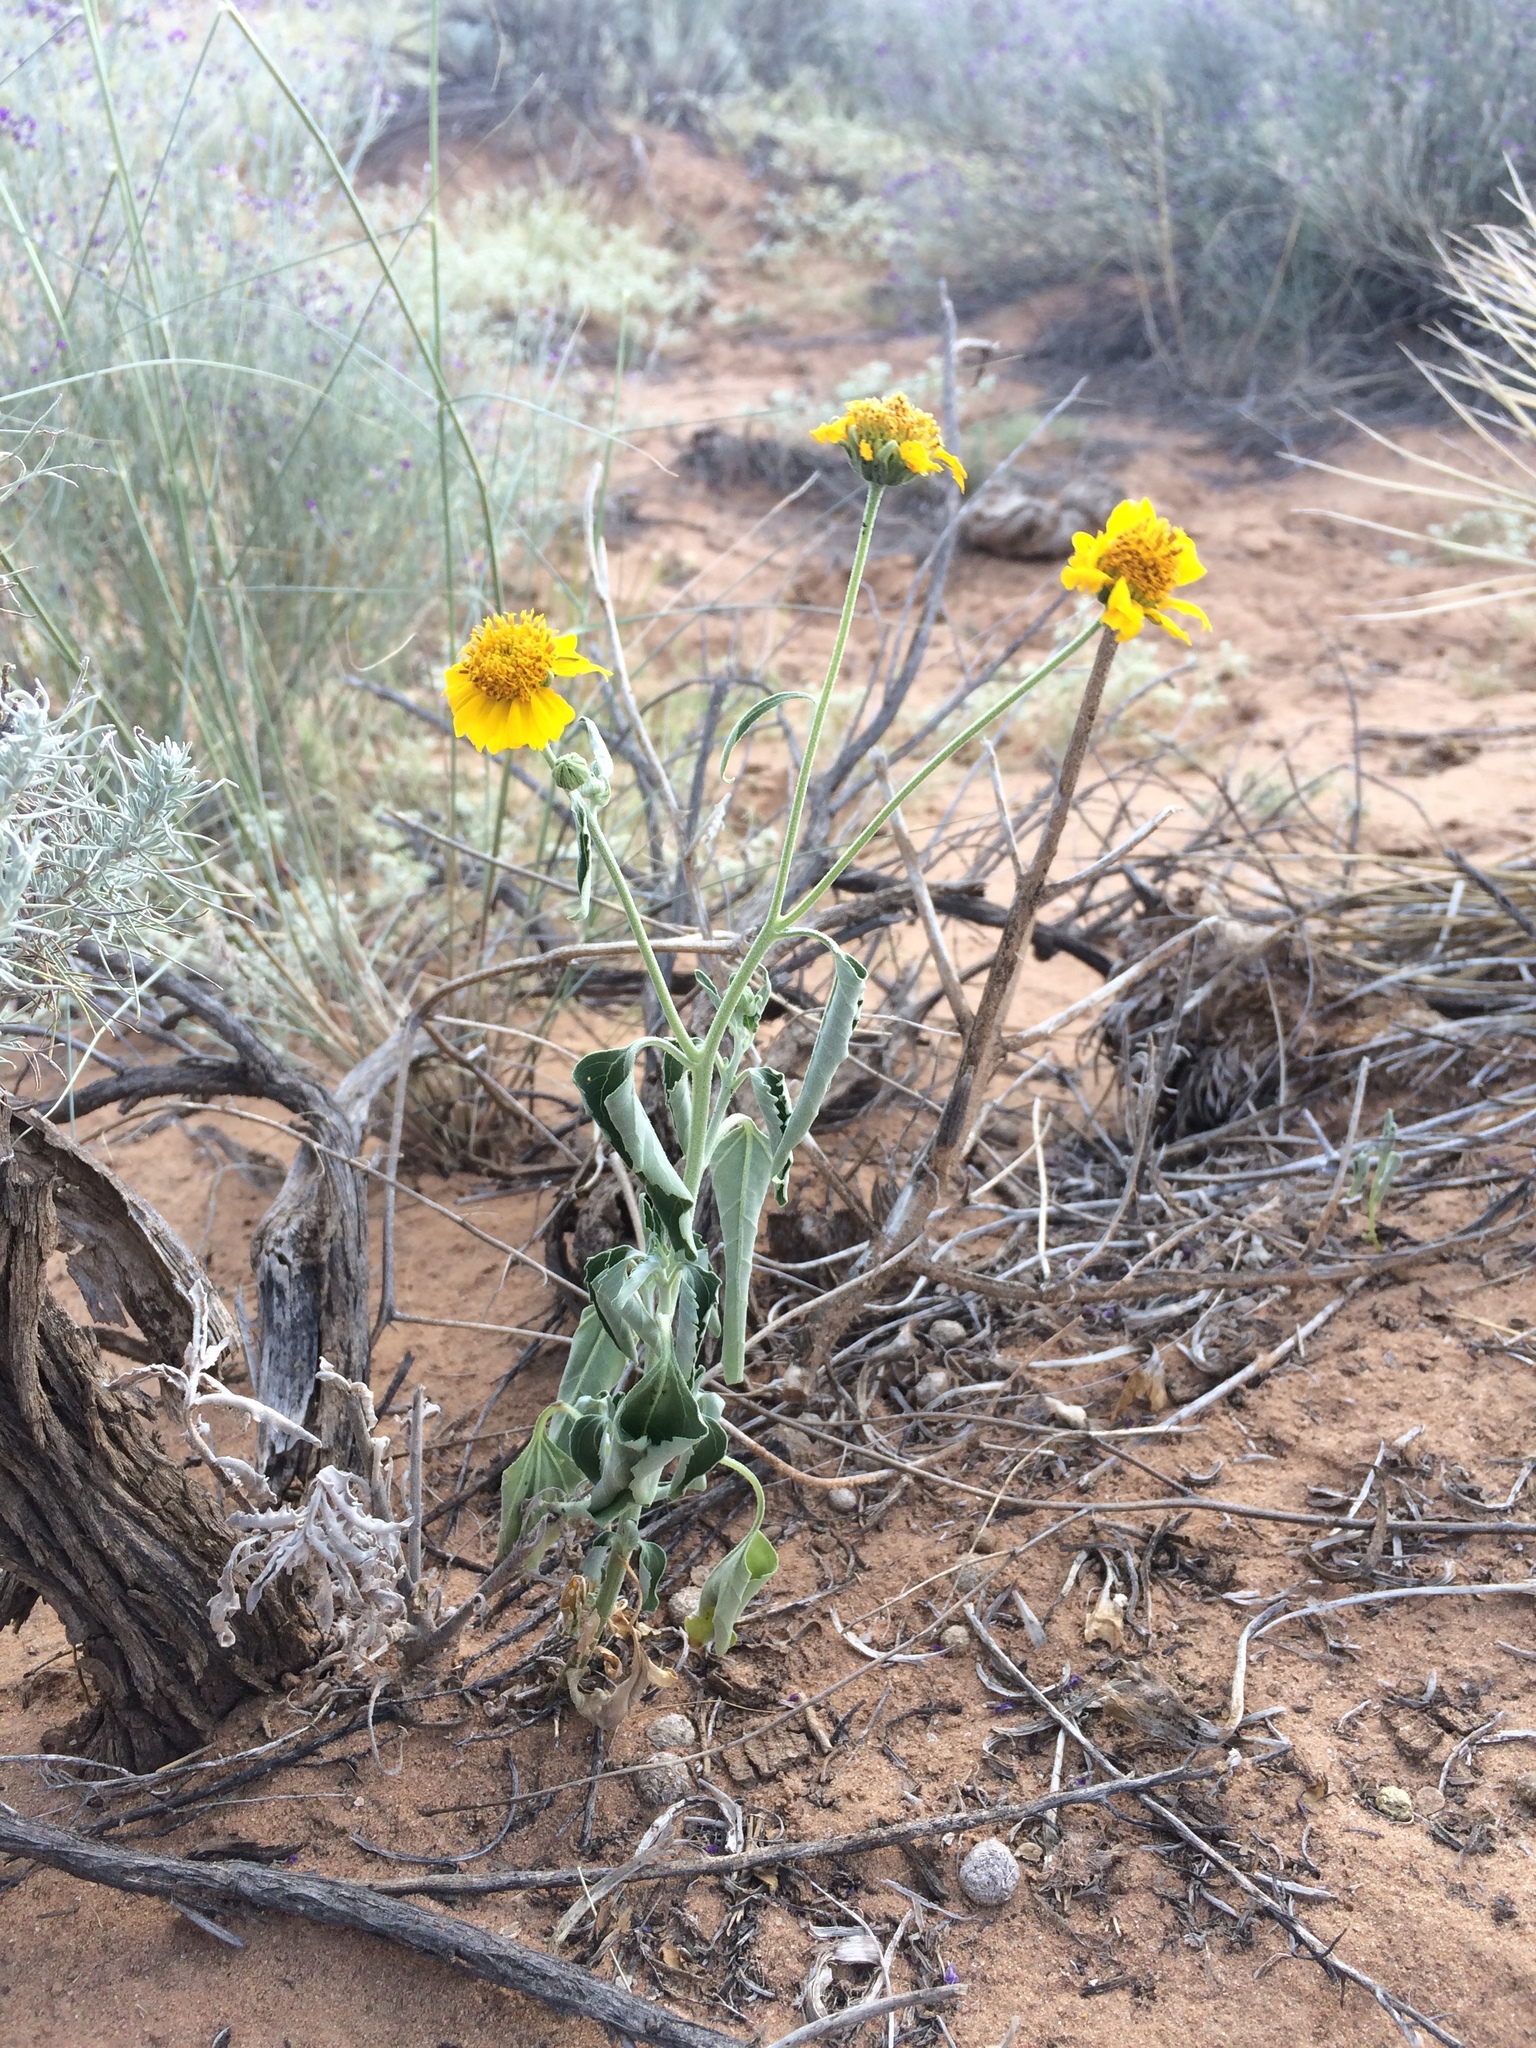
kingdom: Plantae
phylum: Tracheophyta
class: Magnoliopsida
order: Asterales
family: Asteraceae
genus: Verbesina
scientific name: Verbesina encelioides
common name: Golden crownbeard
